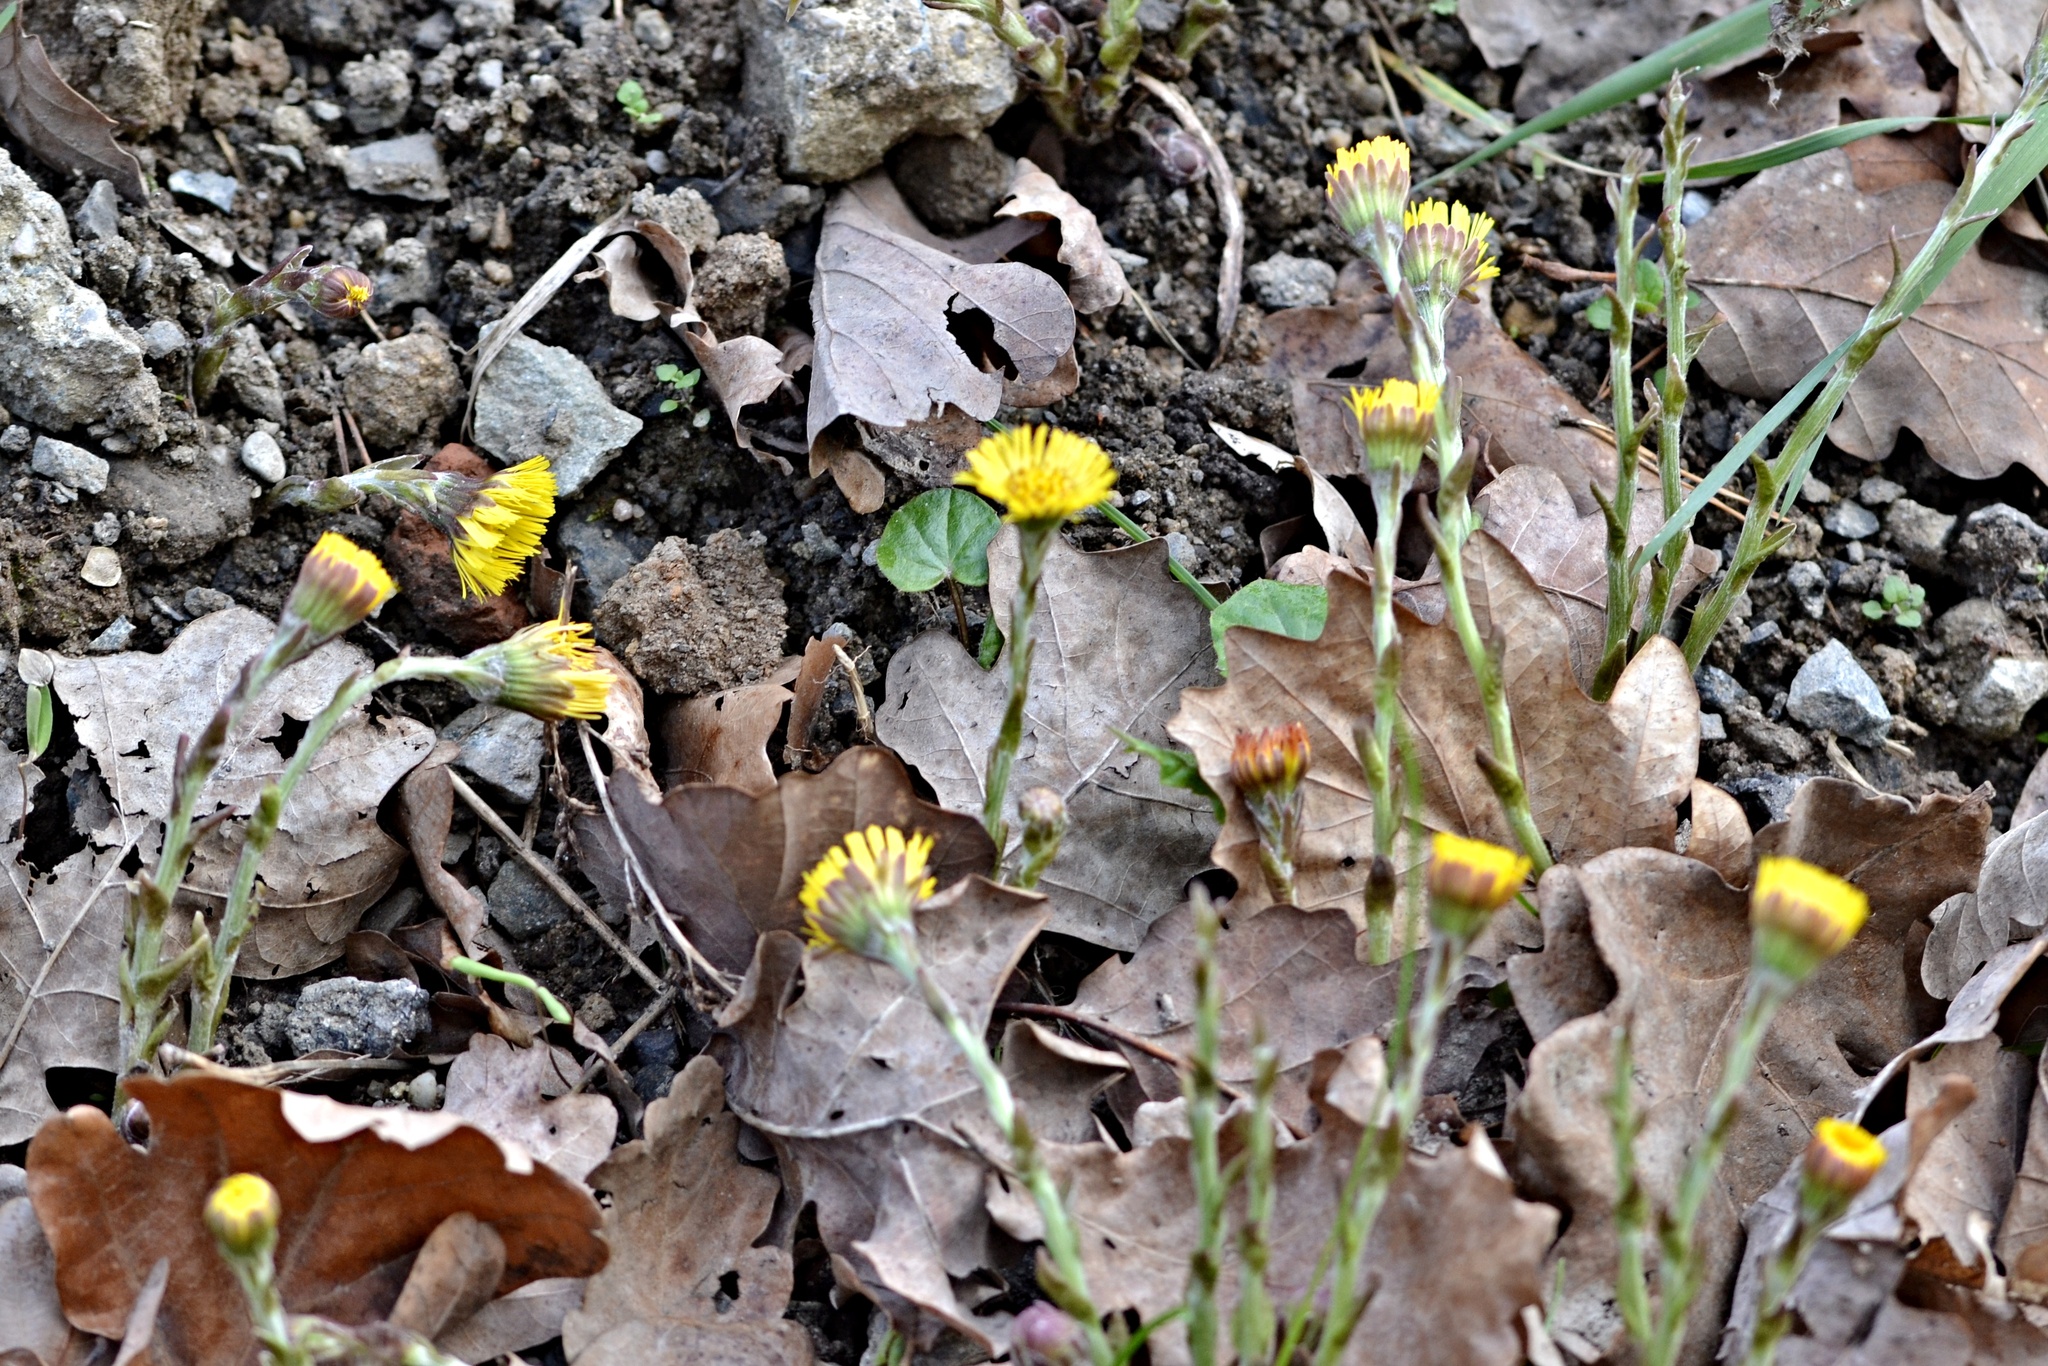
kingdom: Plantae
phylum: Tracheophyta
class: Magnoliopsida
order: Asterales
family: Asteraceae
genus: Tussilago
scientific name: Tussilago farfara
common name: Coltsfoot
